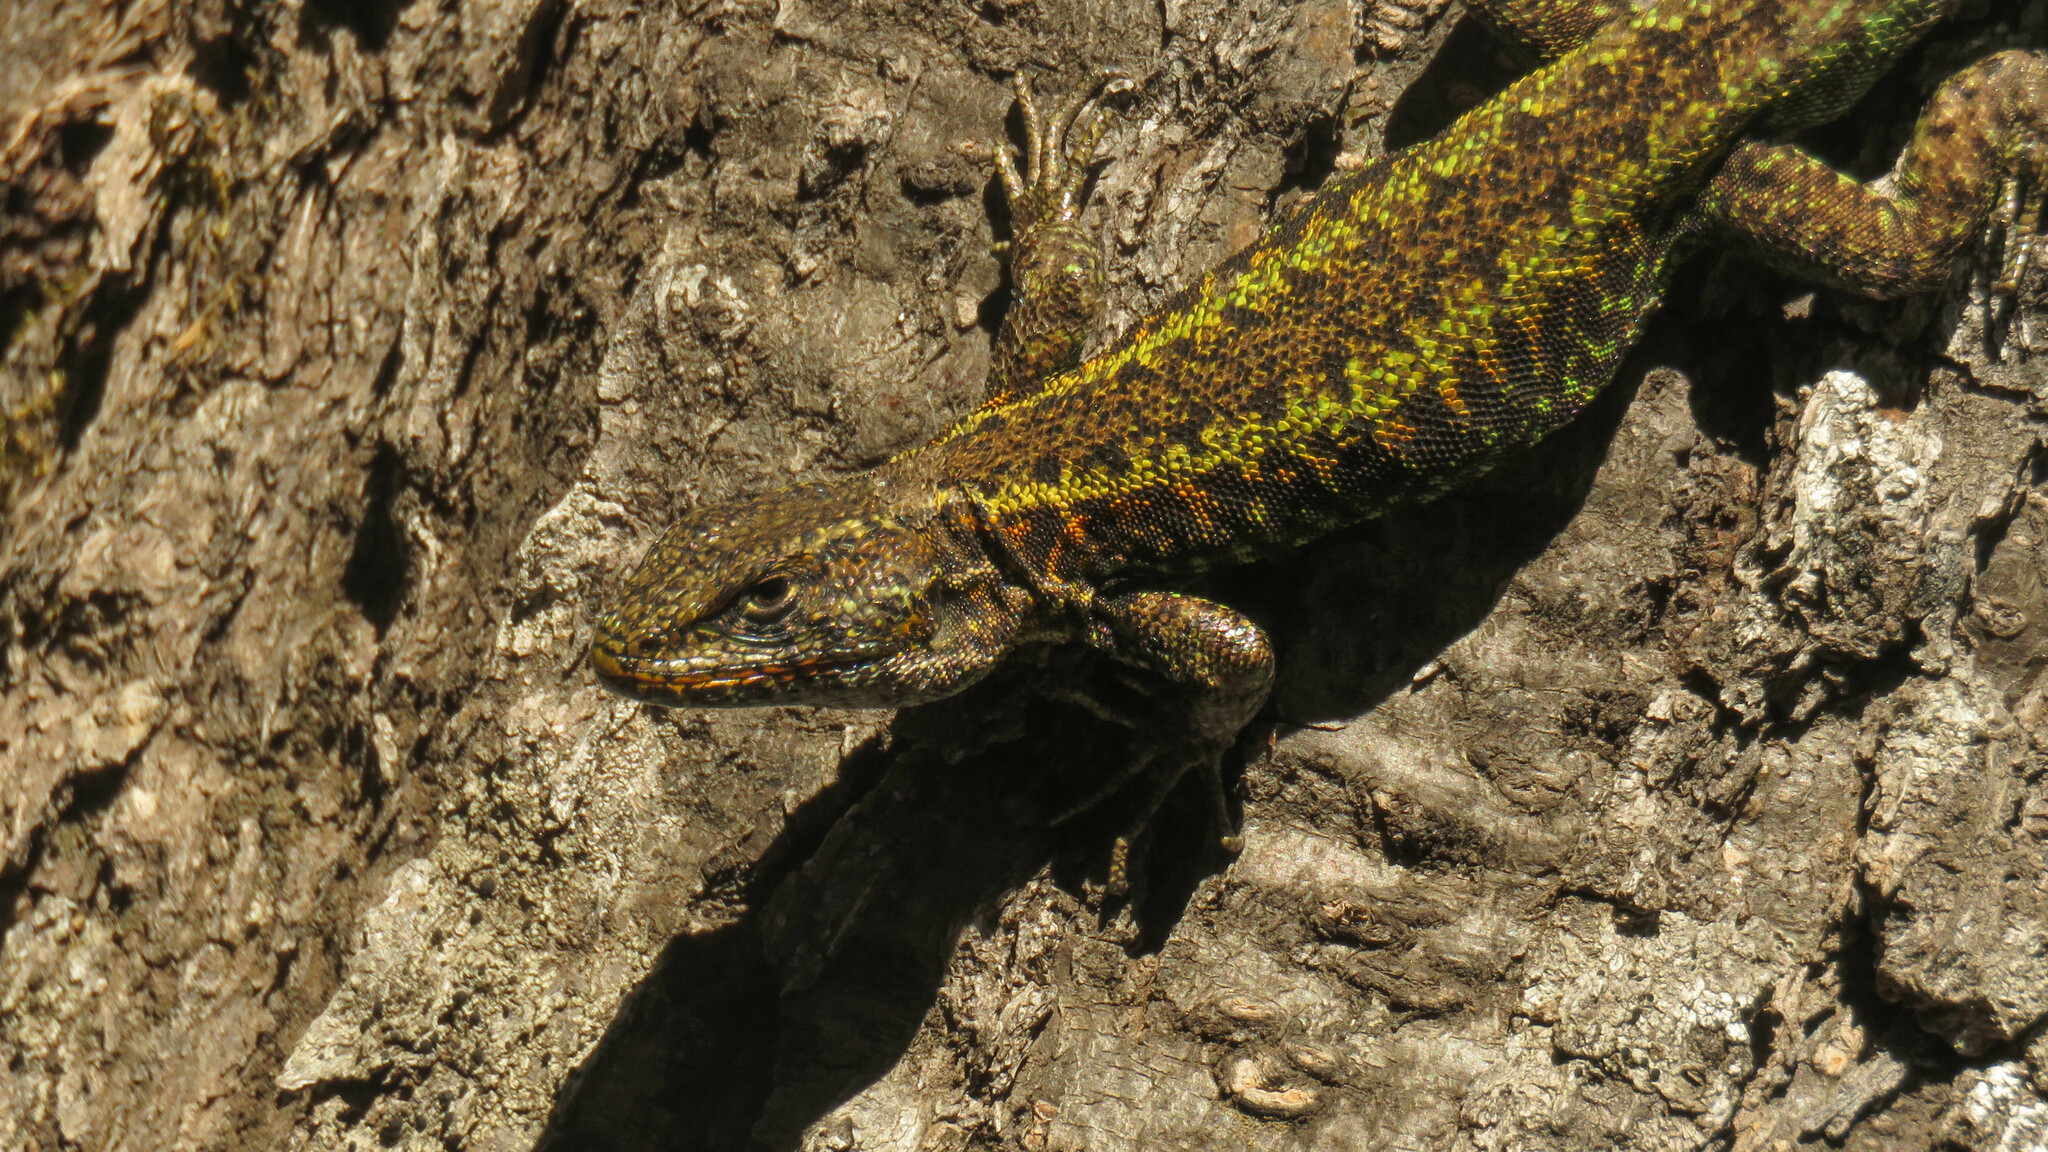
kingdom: Animalia
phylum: Chordata
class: Squamata
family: Liolaemidae
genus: Liolaemus
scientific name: Liolaemus pictus
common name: Painted tree iguana
